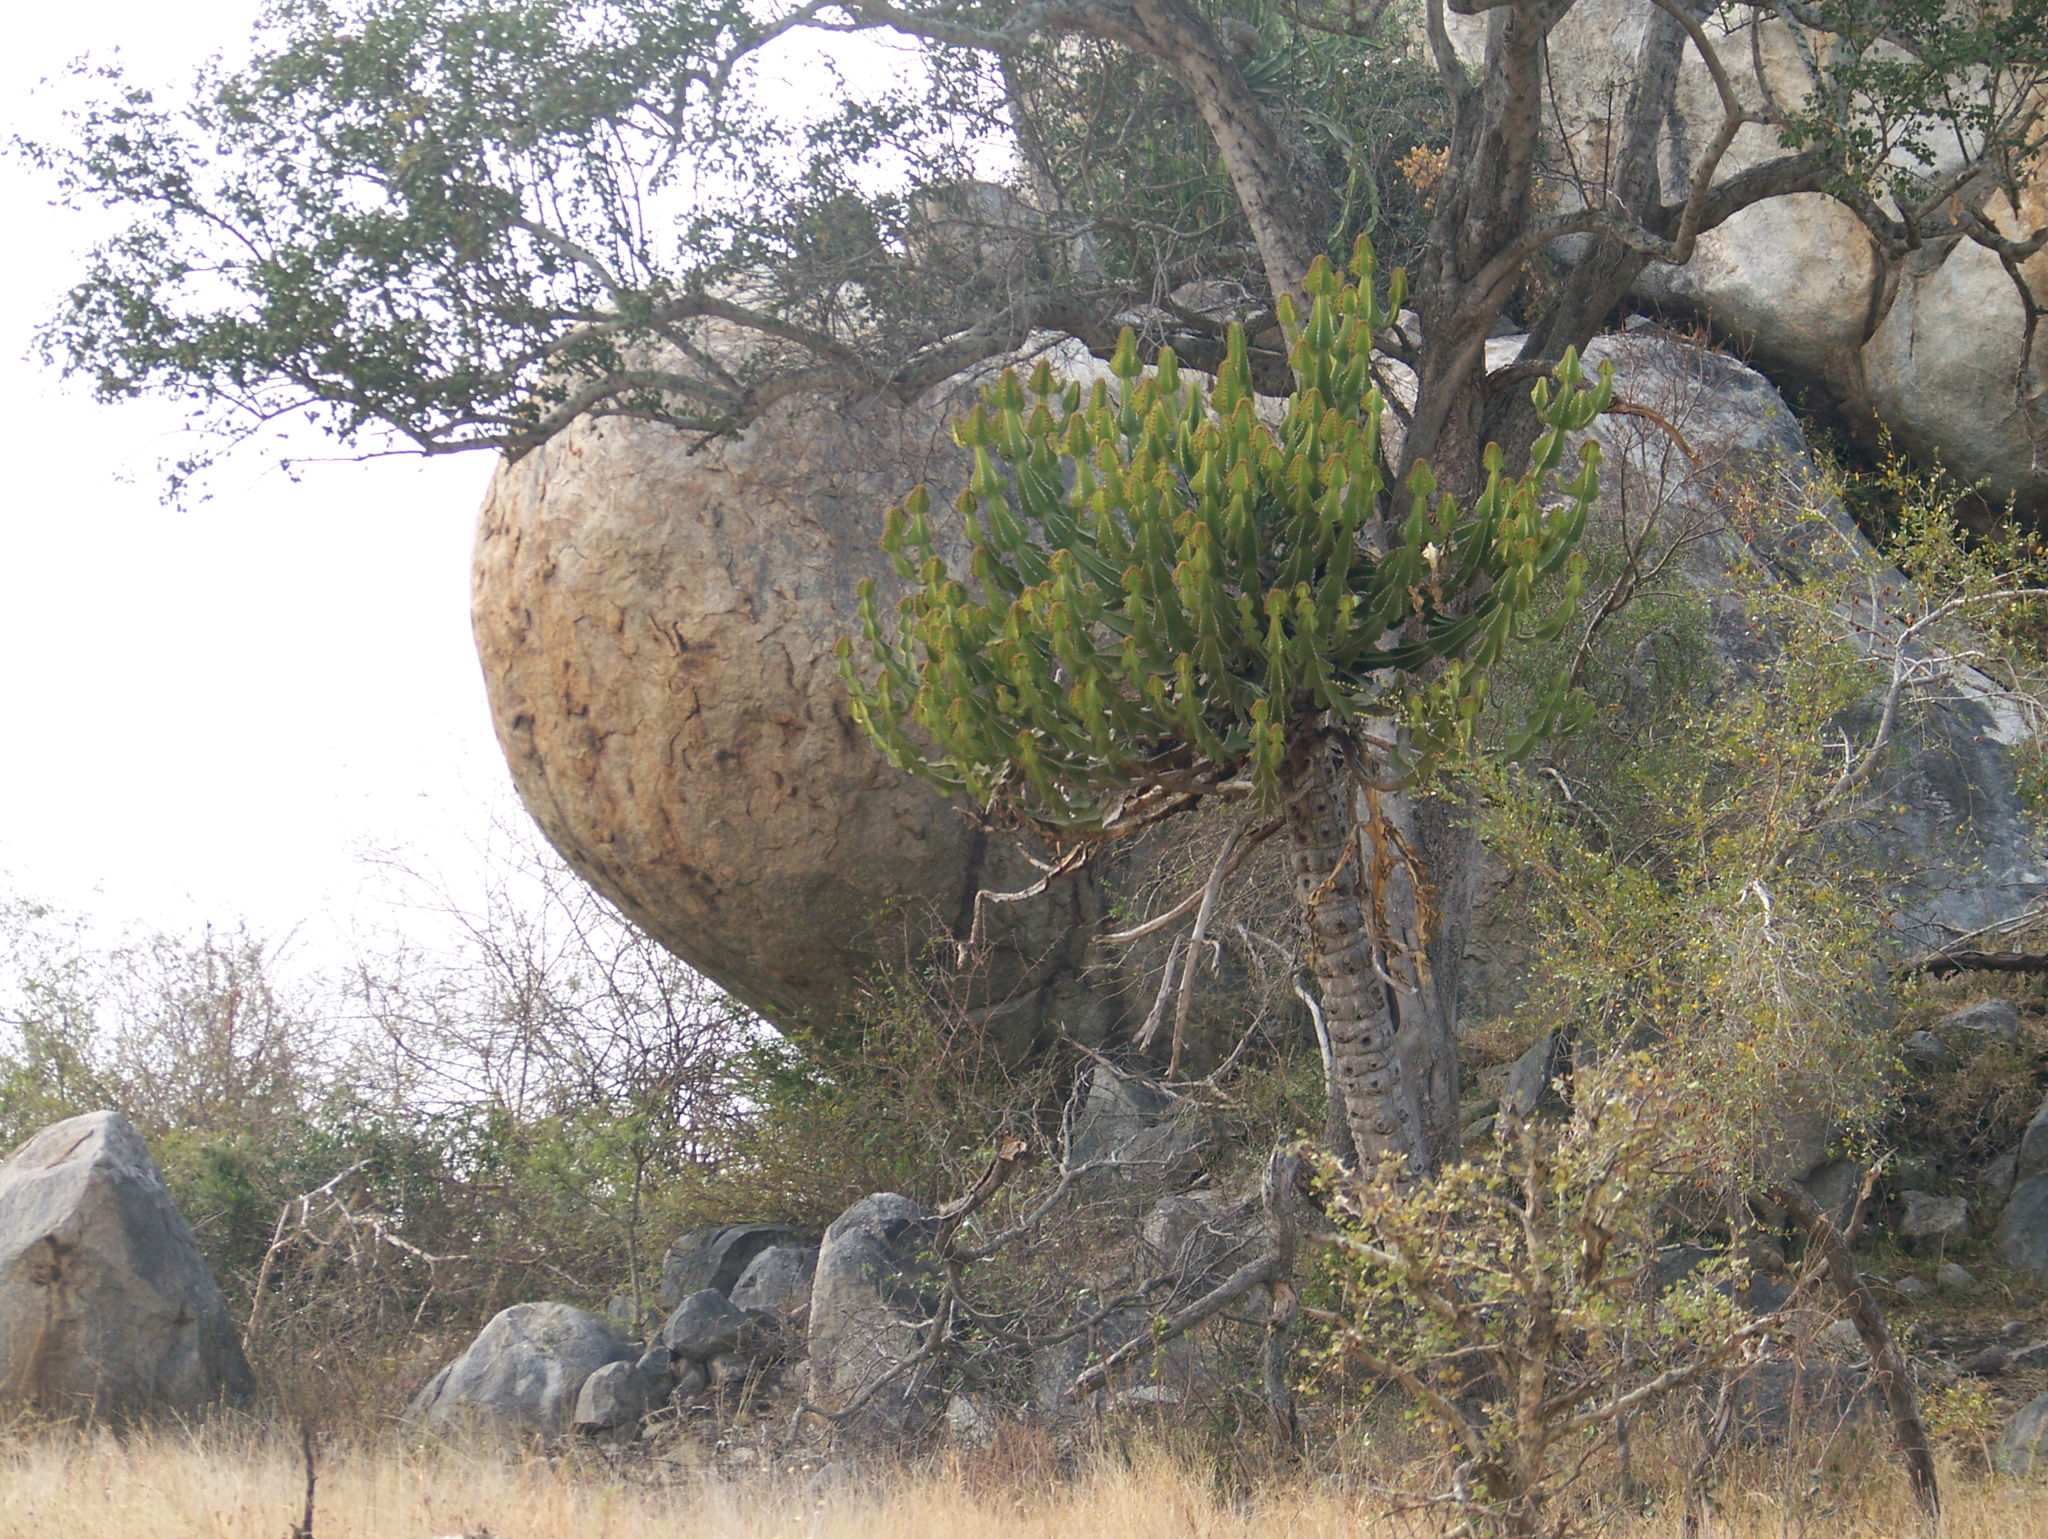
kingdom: Plantae
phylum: Tracheophyta
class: Magnoliopsida
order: Malpighiales
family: Euphorbiaceae
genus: Euphorbia
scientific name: Euphorbia cooperi
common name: Candelabra tree
